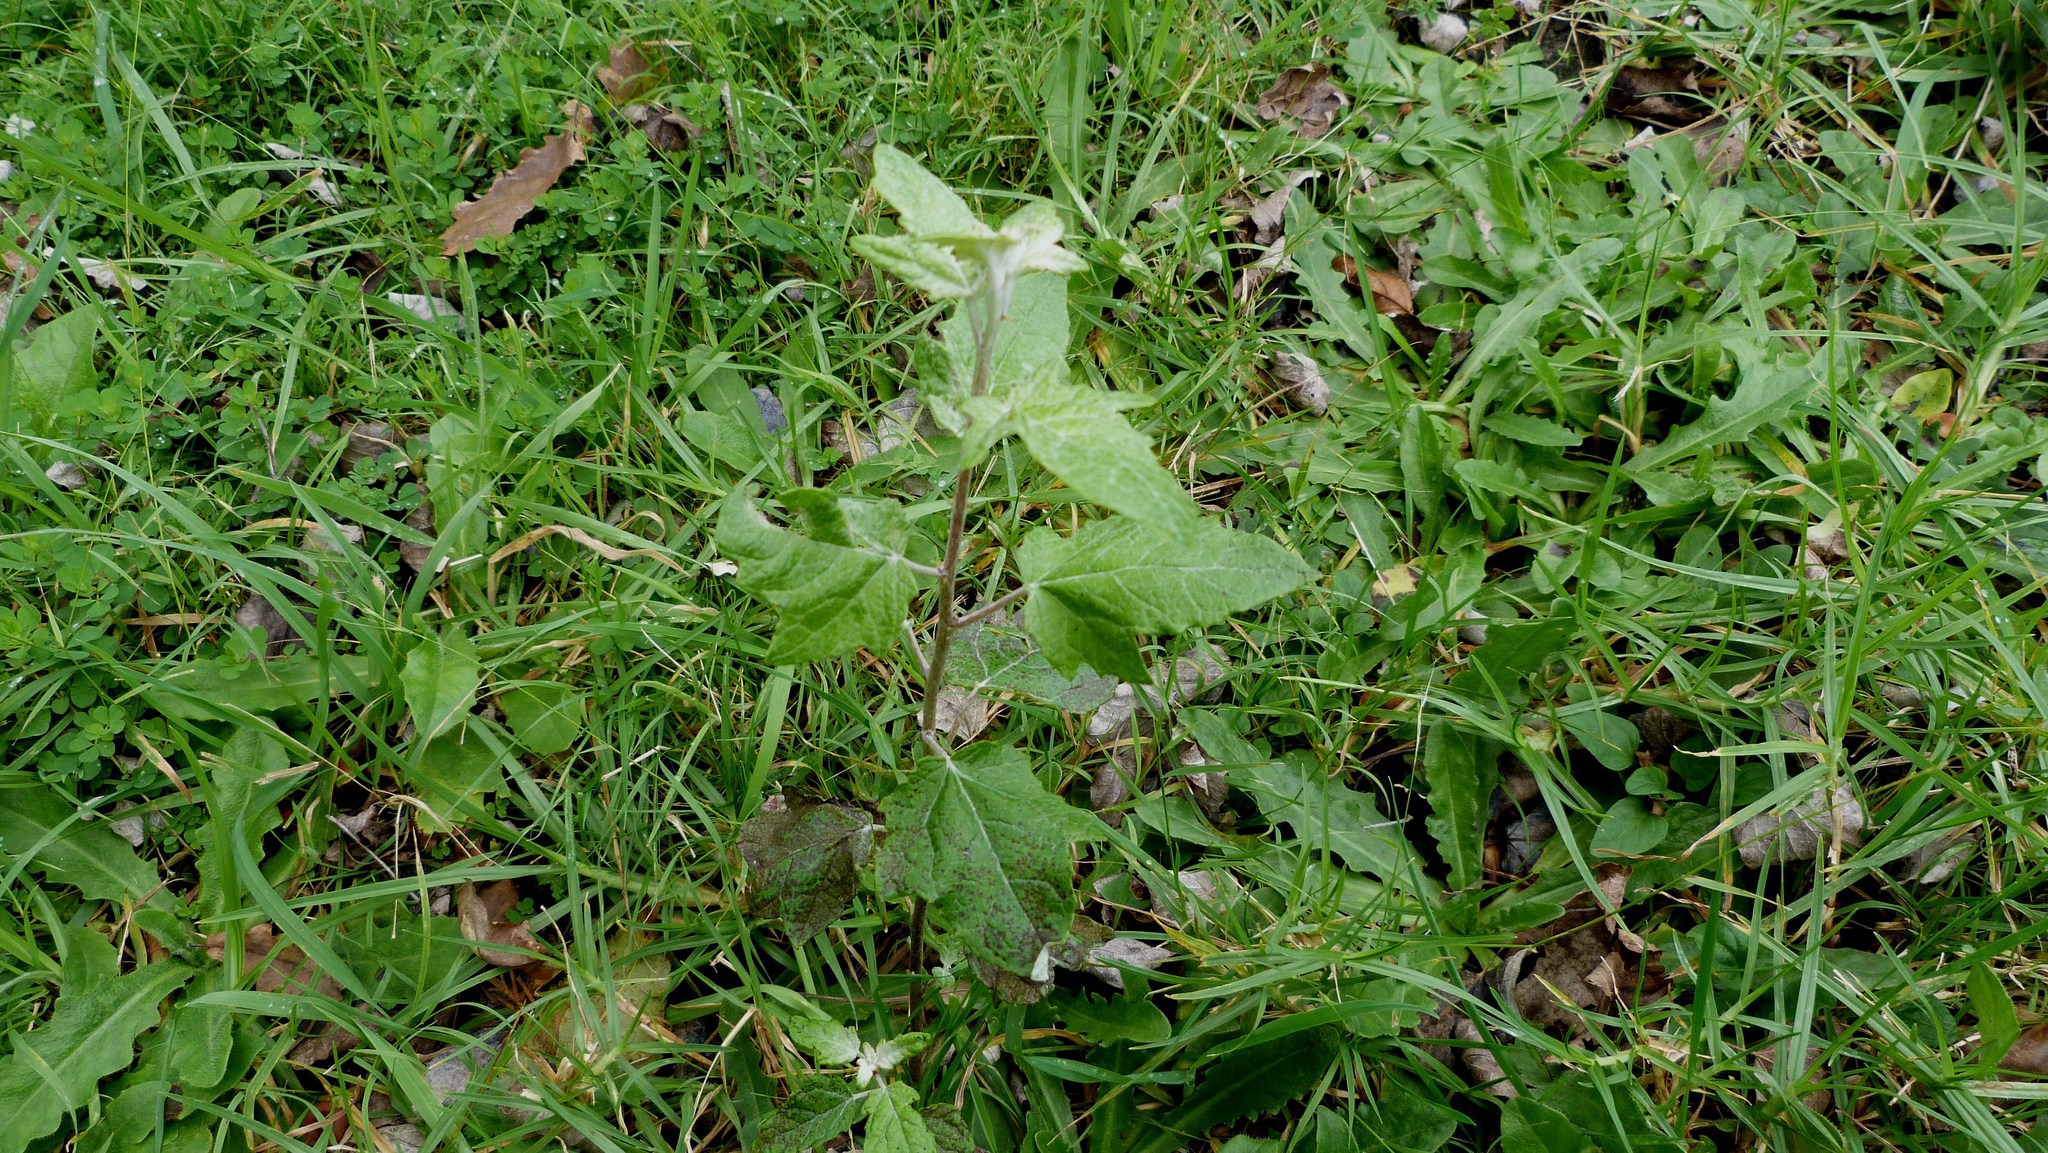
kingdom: Plantae
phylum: Tracheophyta
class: Magnoliopsida
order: Malpighiales
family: Salicaceae
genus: Populus
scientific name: Populus alba
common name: White poplar
